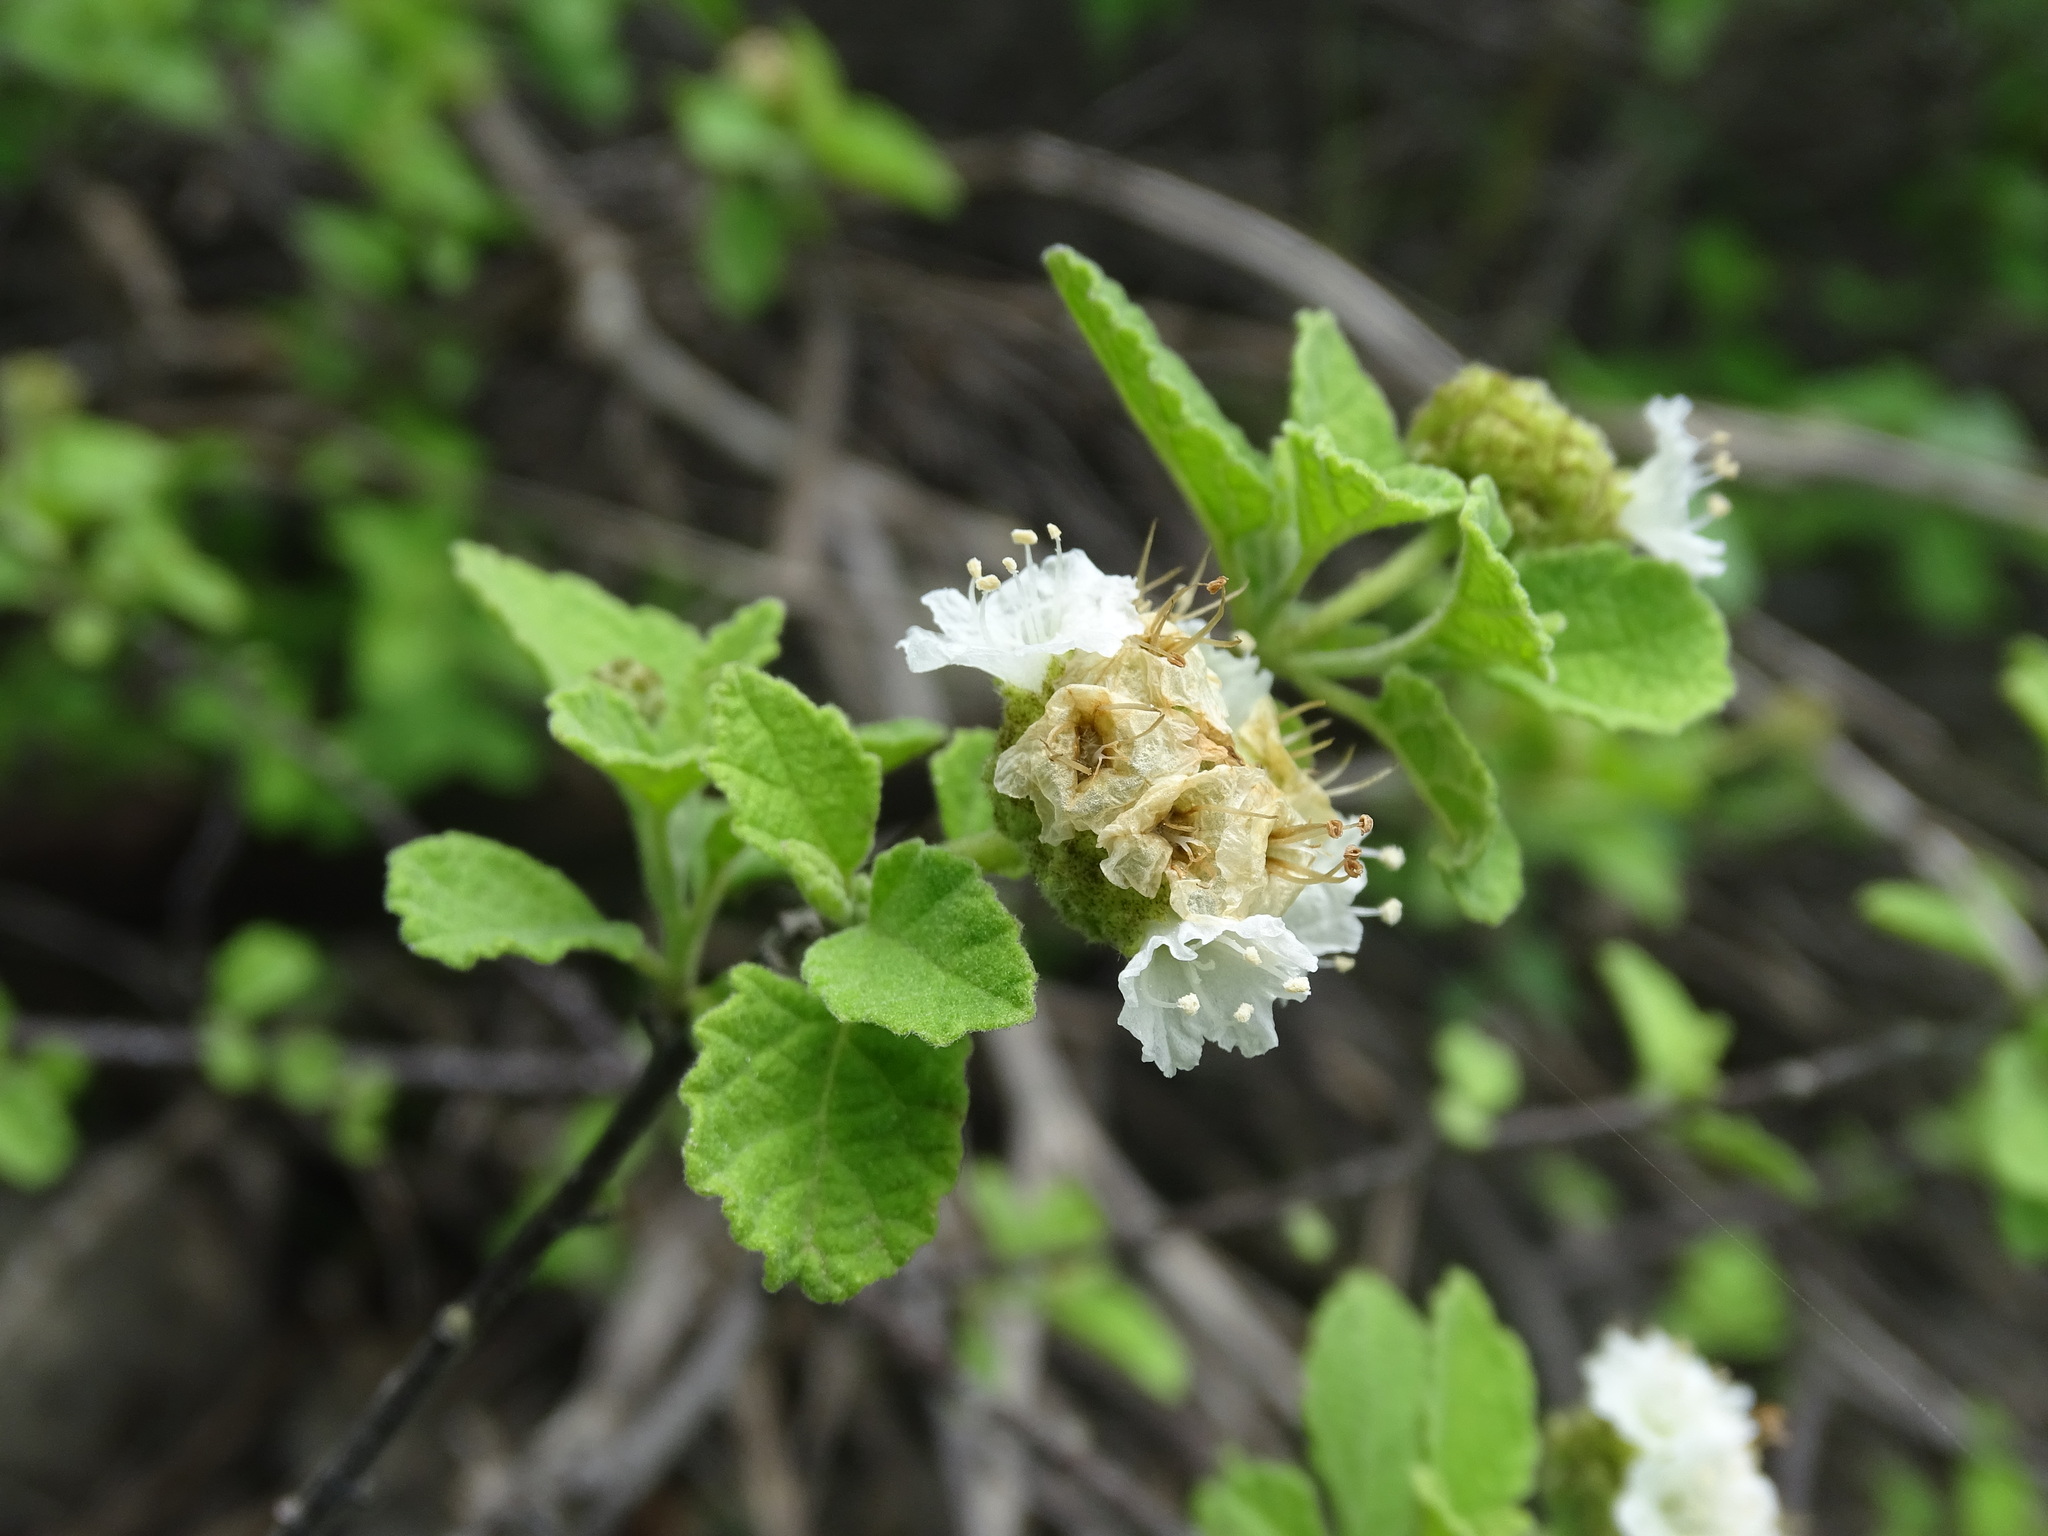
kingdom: Plantae
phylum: Tracheophyta
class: Magnoliopsida
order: Boraginales
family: Cordiaceae
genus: Varronia
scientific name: Varronia stellata
